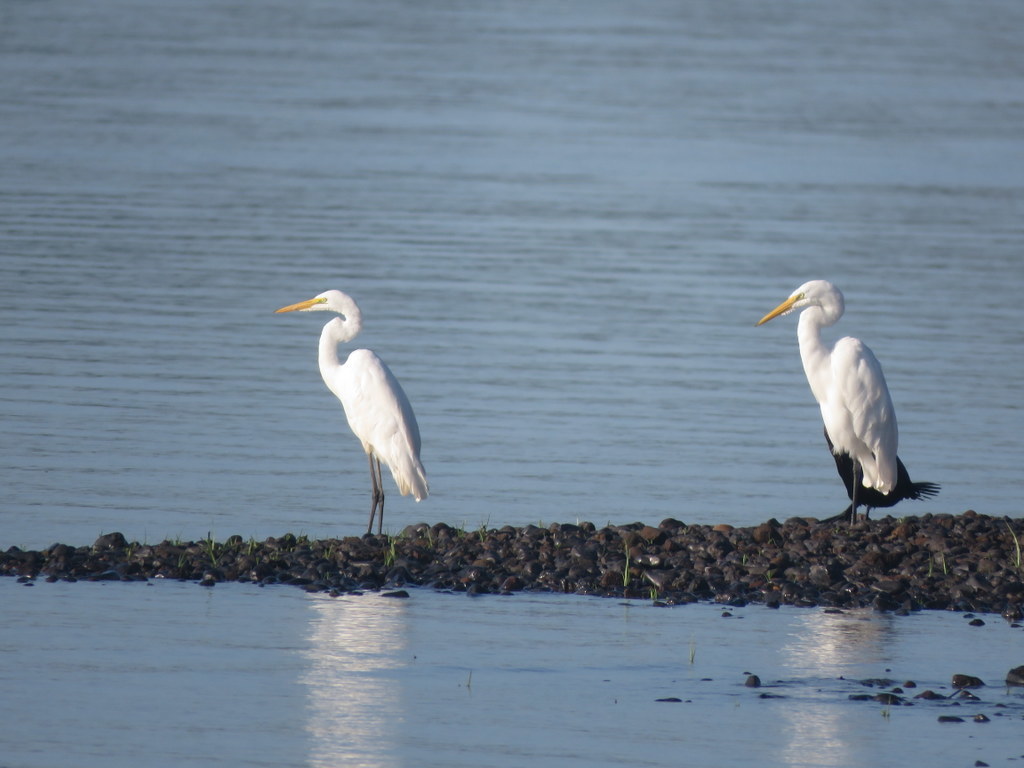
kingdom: Animalia
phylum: Chordata
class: Aves
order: Pelecaniformes
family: Ardeidae
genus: Ardea
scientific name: Ardea alba
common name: Great egret
